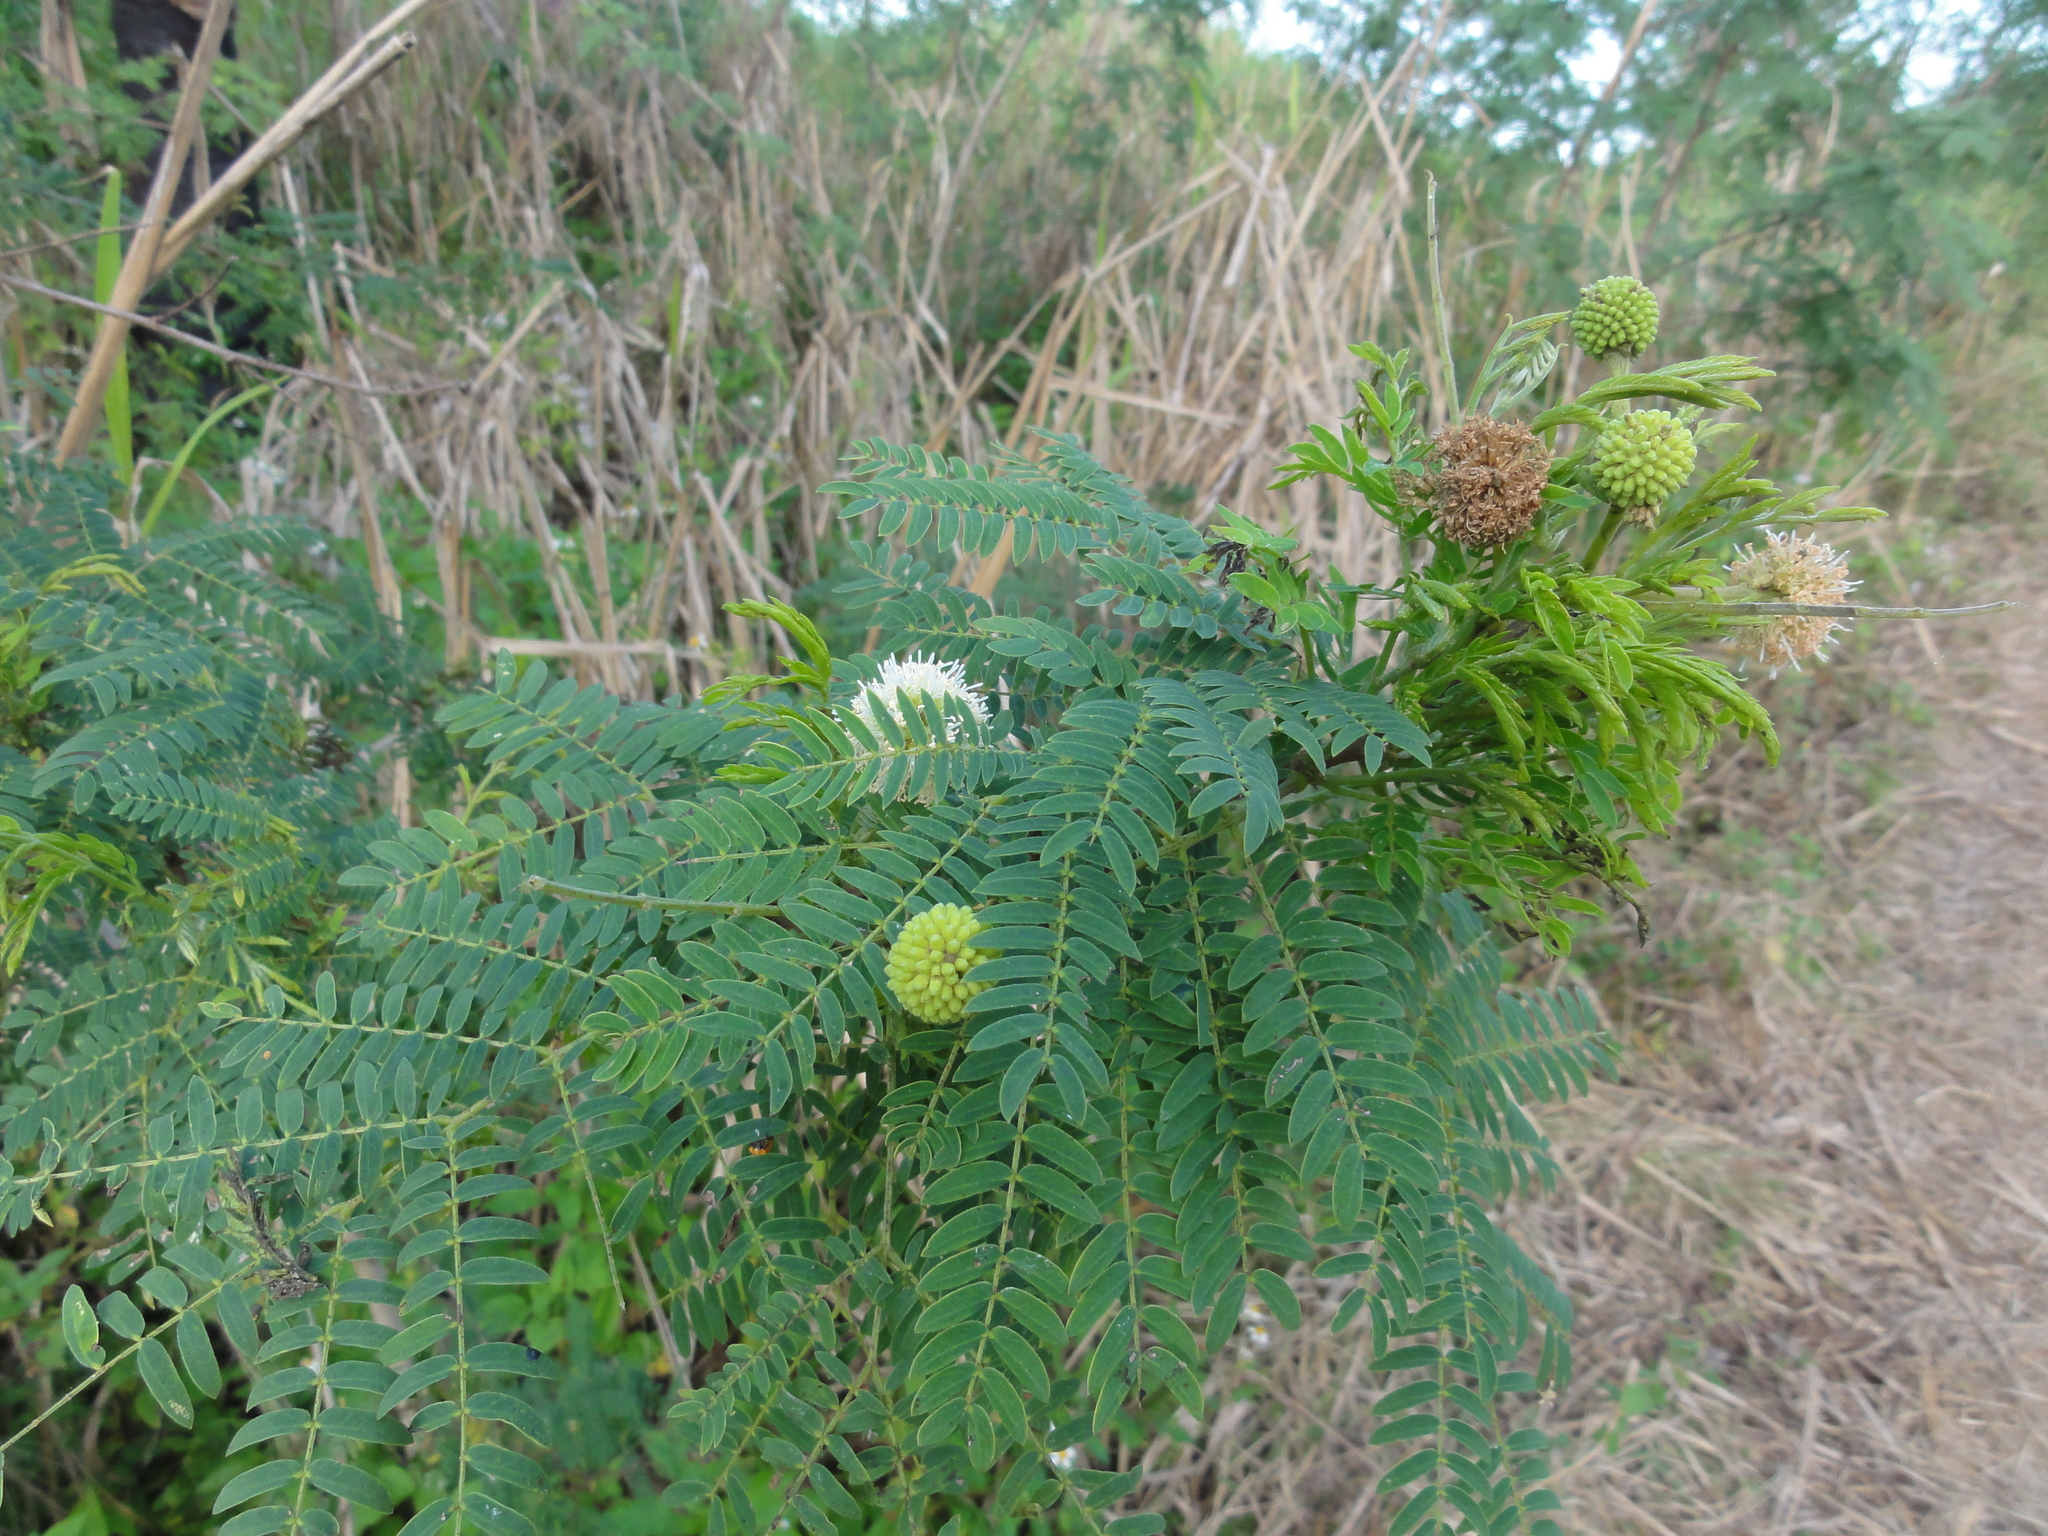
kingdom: Plantae
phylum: Tracheophyta
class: Magnoliopsida
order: Fabales
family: Fabaceae
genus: Leucaena
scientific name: Leucaena leucocephala
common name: White leadtree
